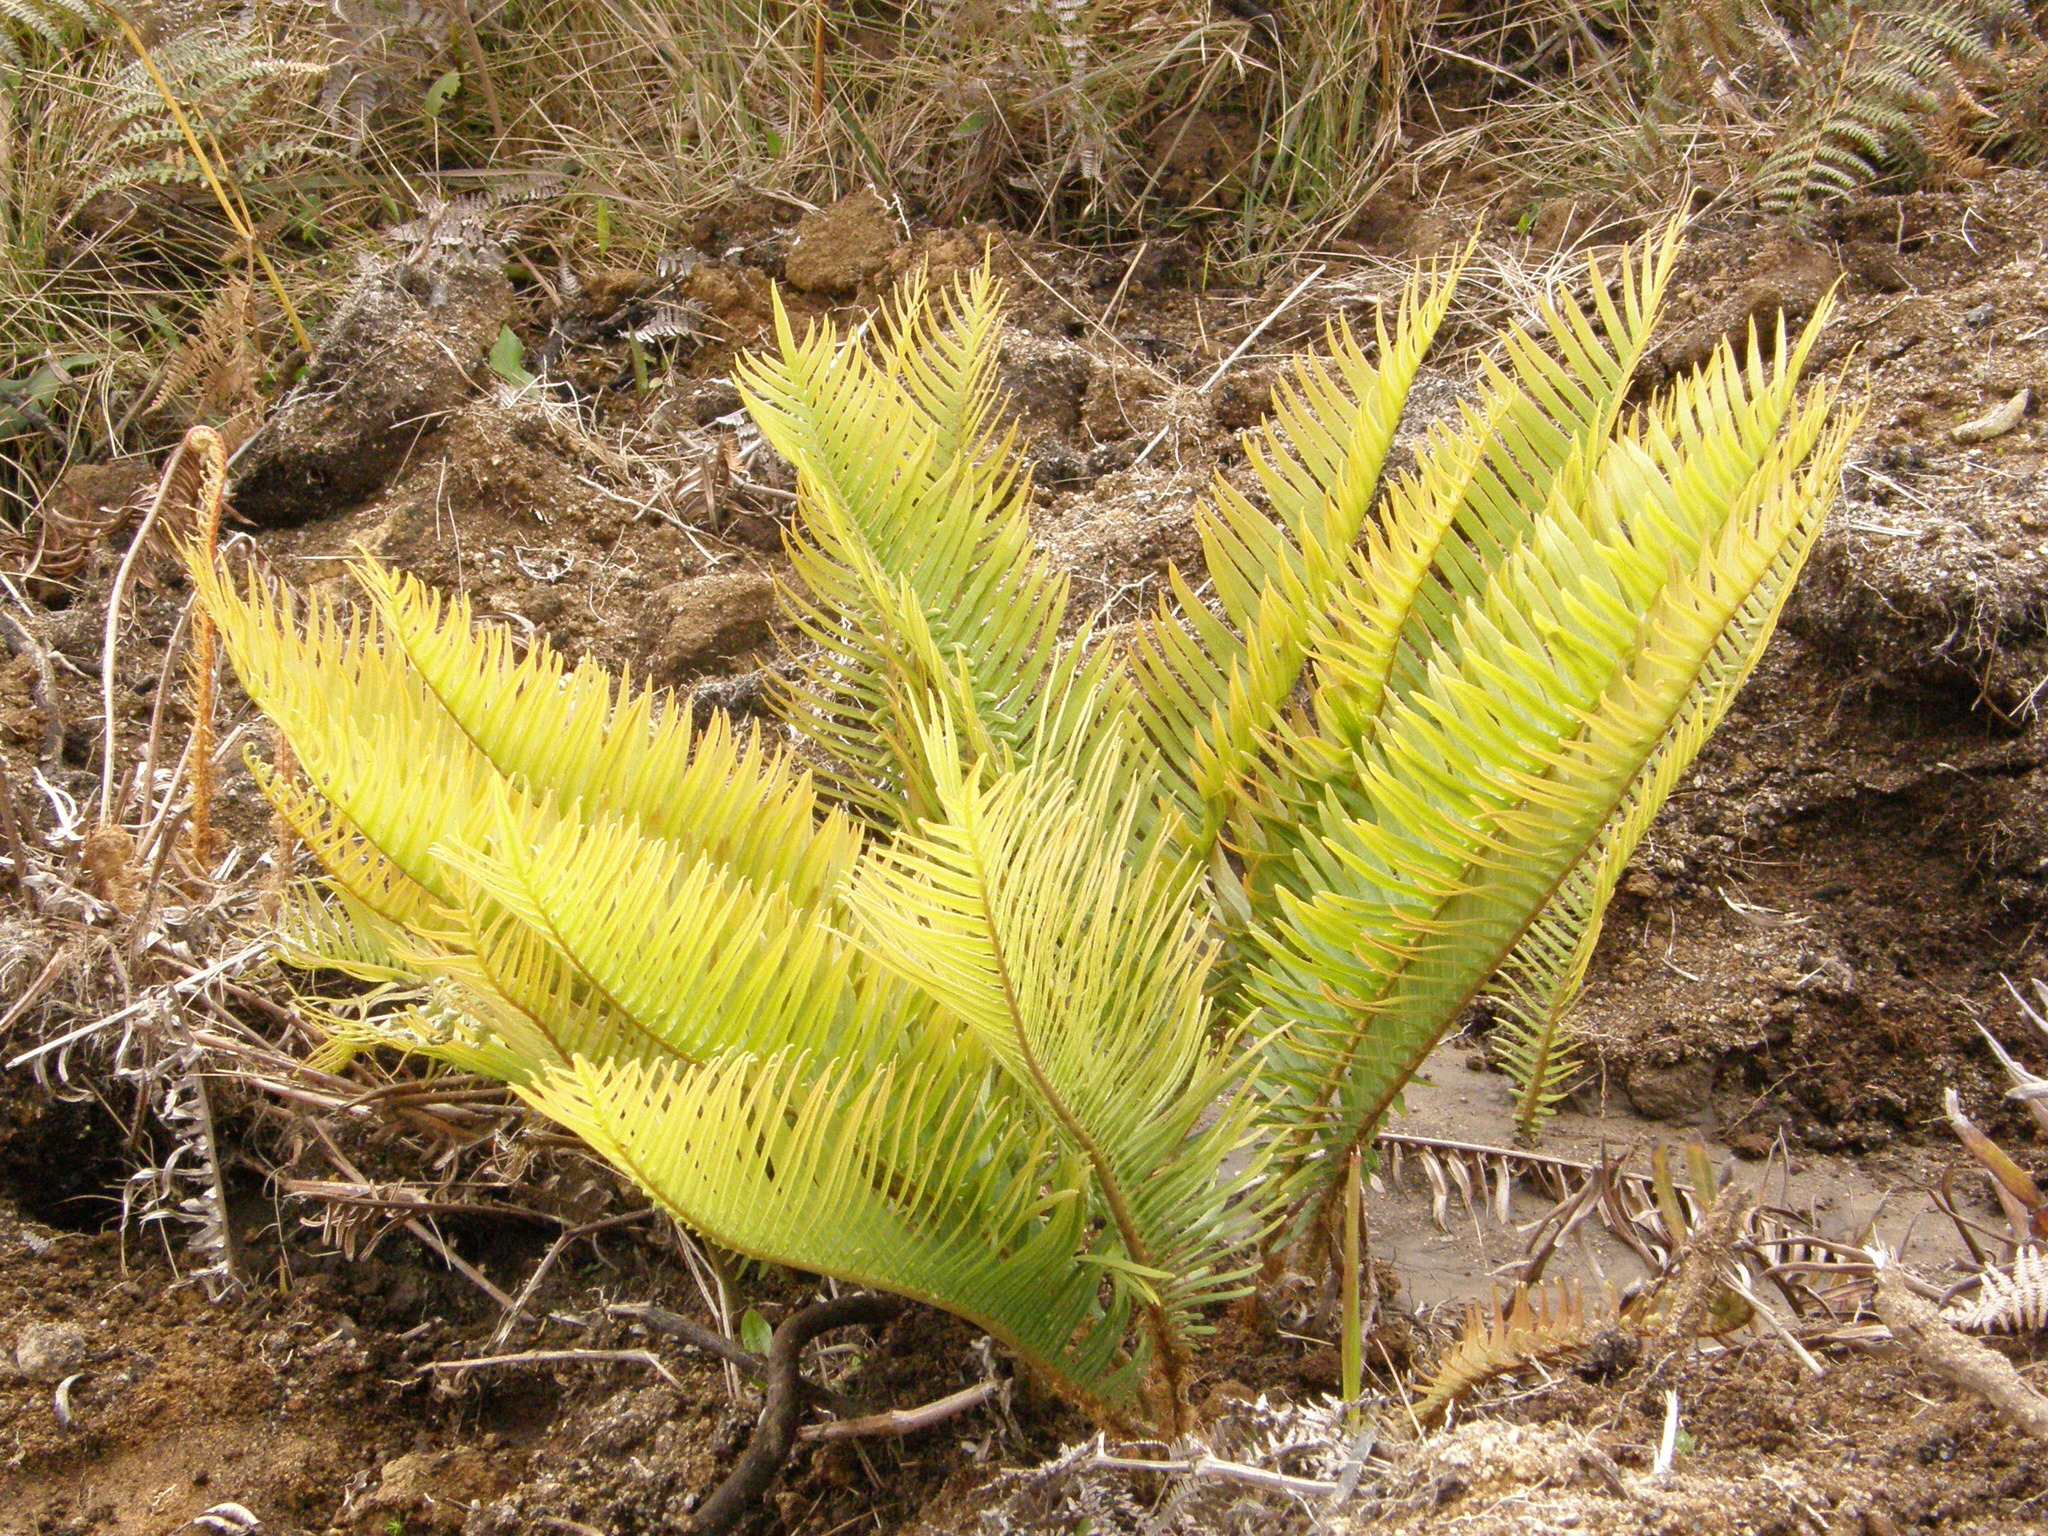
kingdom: Plantae
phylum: Tracheophyta
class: Polypodiopsida
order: Polypodiales
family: Blechnaceae
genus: Lomariocycas
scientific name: Lomariocycas tabularis
